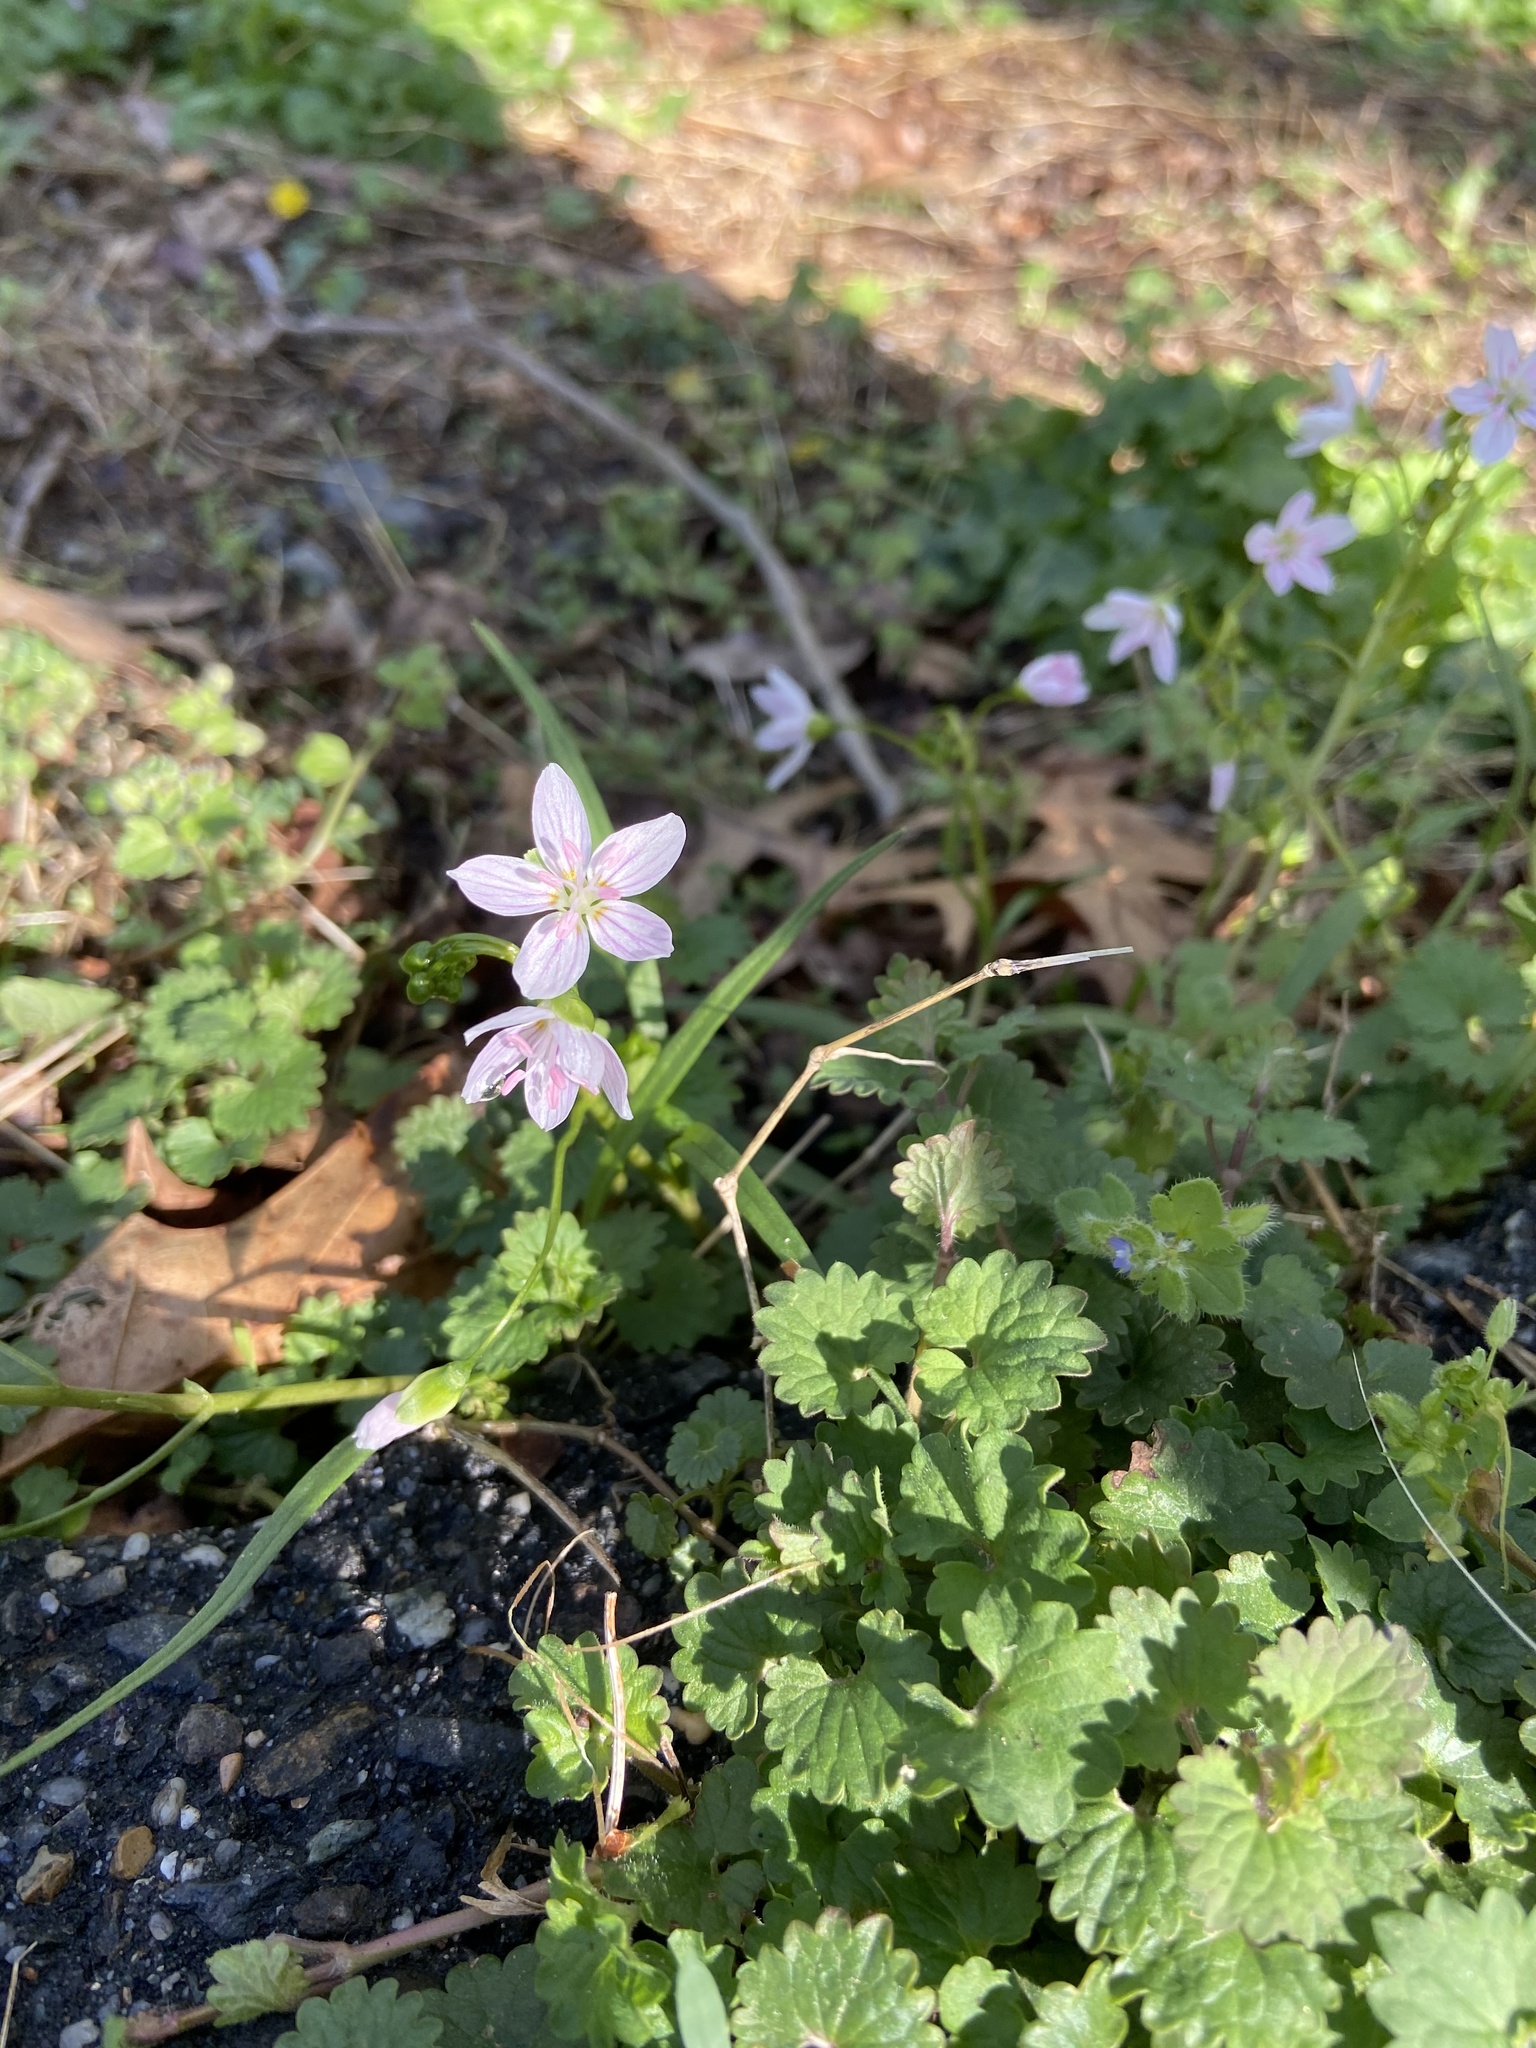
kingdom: Plantae
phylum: Tracheophyta
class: Magnoliopsida
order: Caryophyllales
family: Montiaceae
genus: Claytonia
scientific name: Claytonia virginica
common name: Virginia springbeauty
